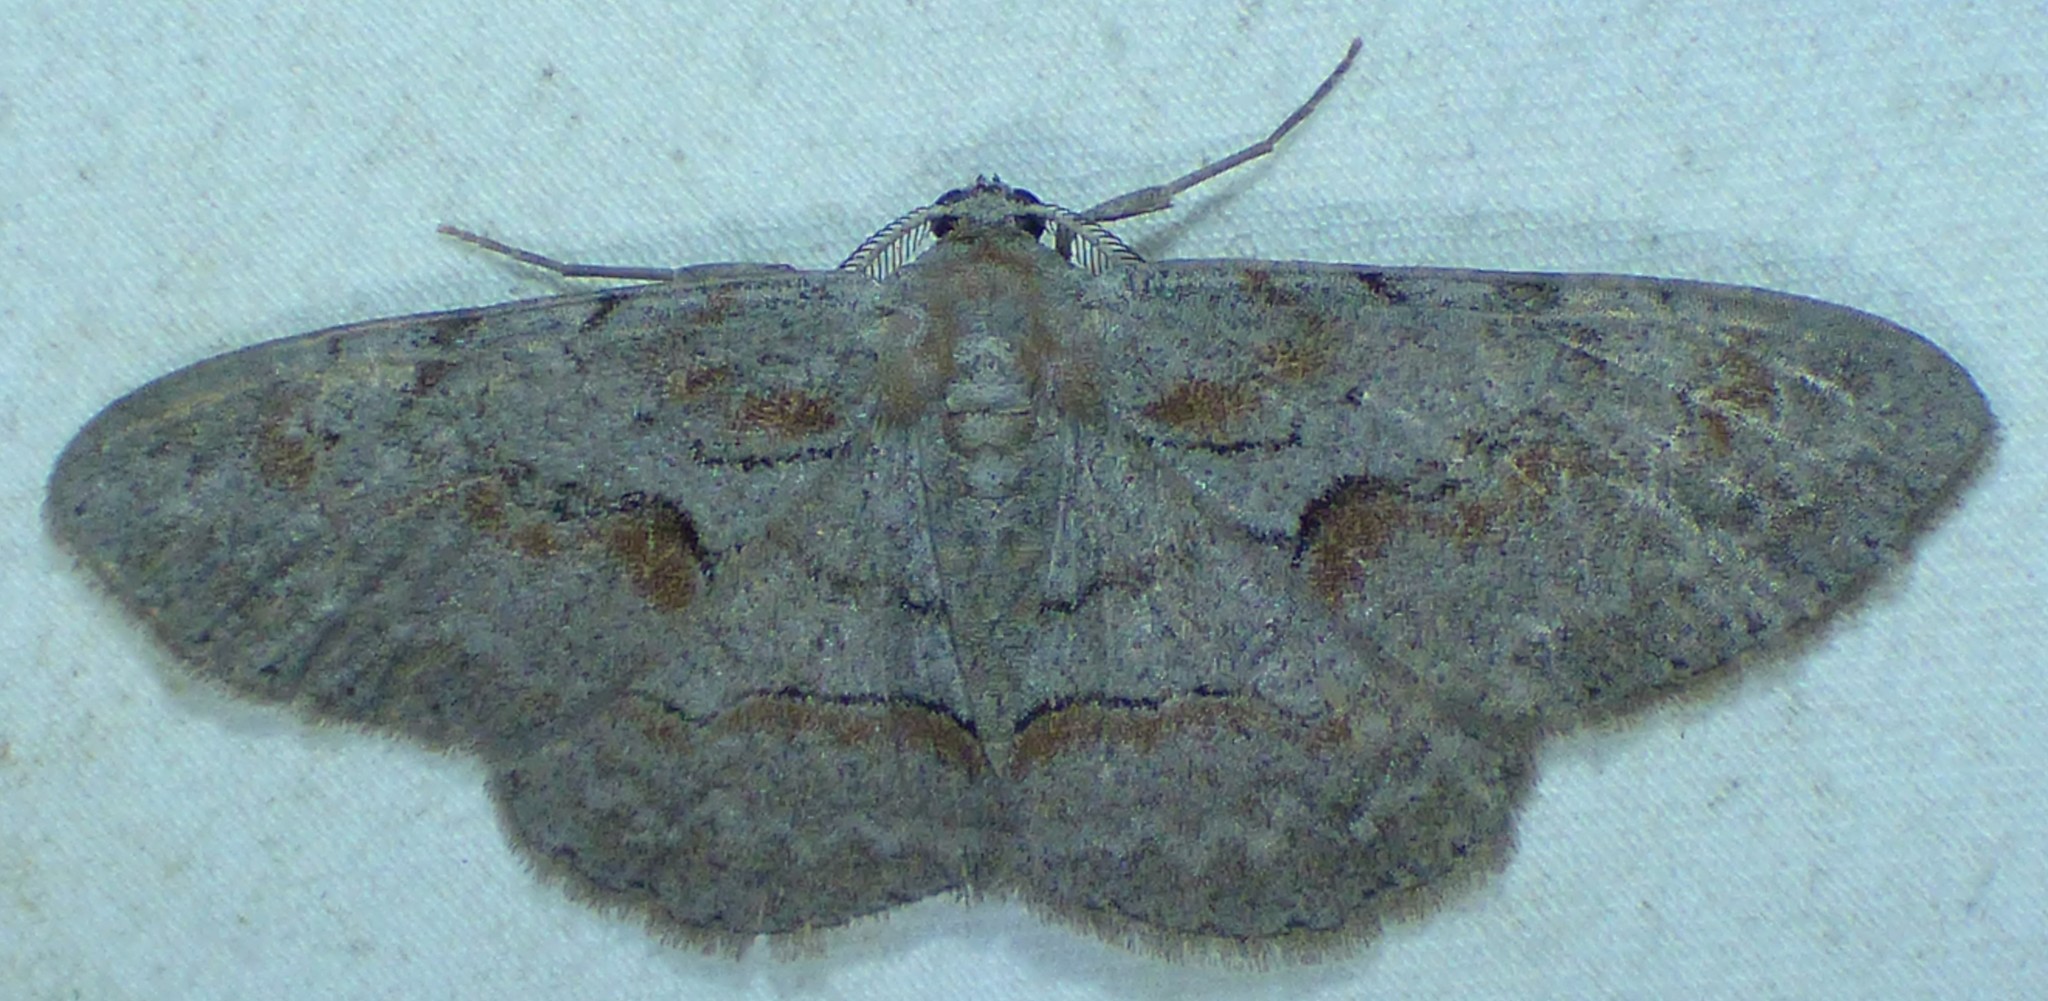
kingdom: Animalia
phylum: Arthropoda
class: Insecta
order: Lepidoptera
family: Geometridae
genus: Iridopsis
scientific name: Iridopsis defectaria
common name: Brown-shaded gray
